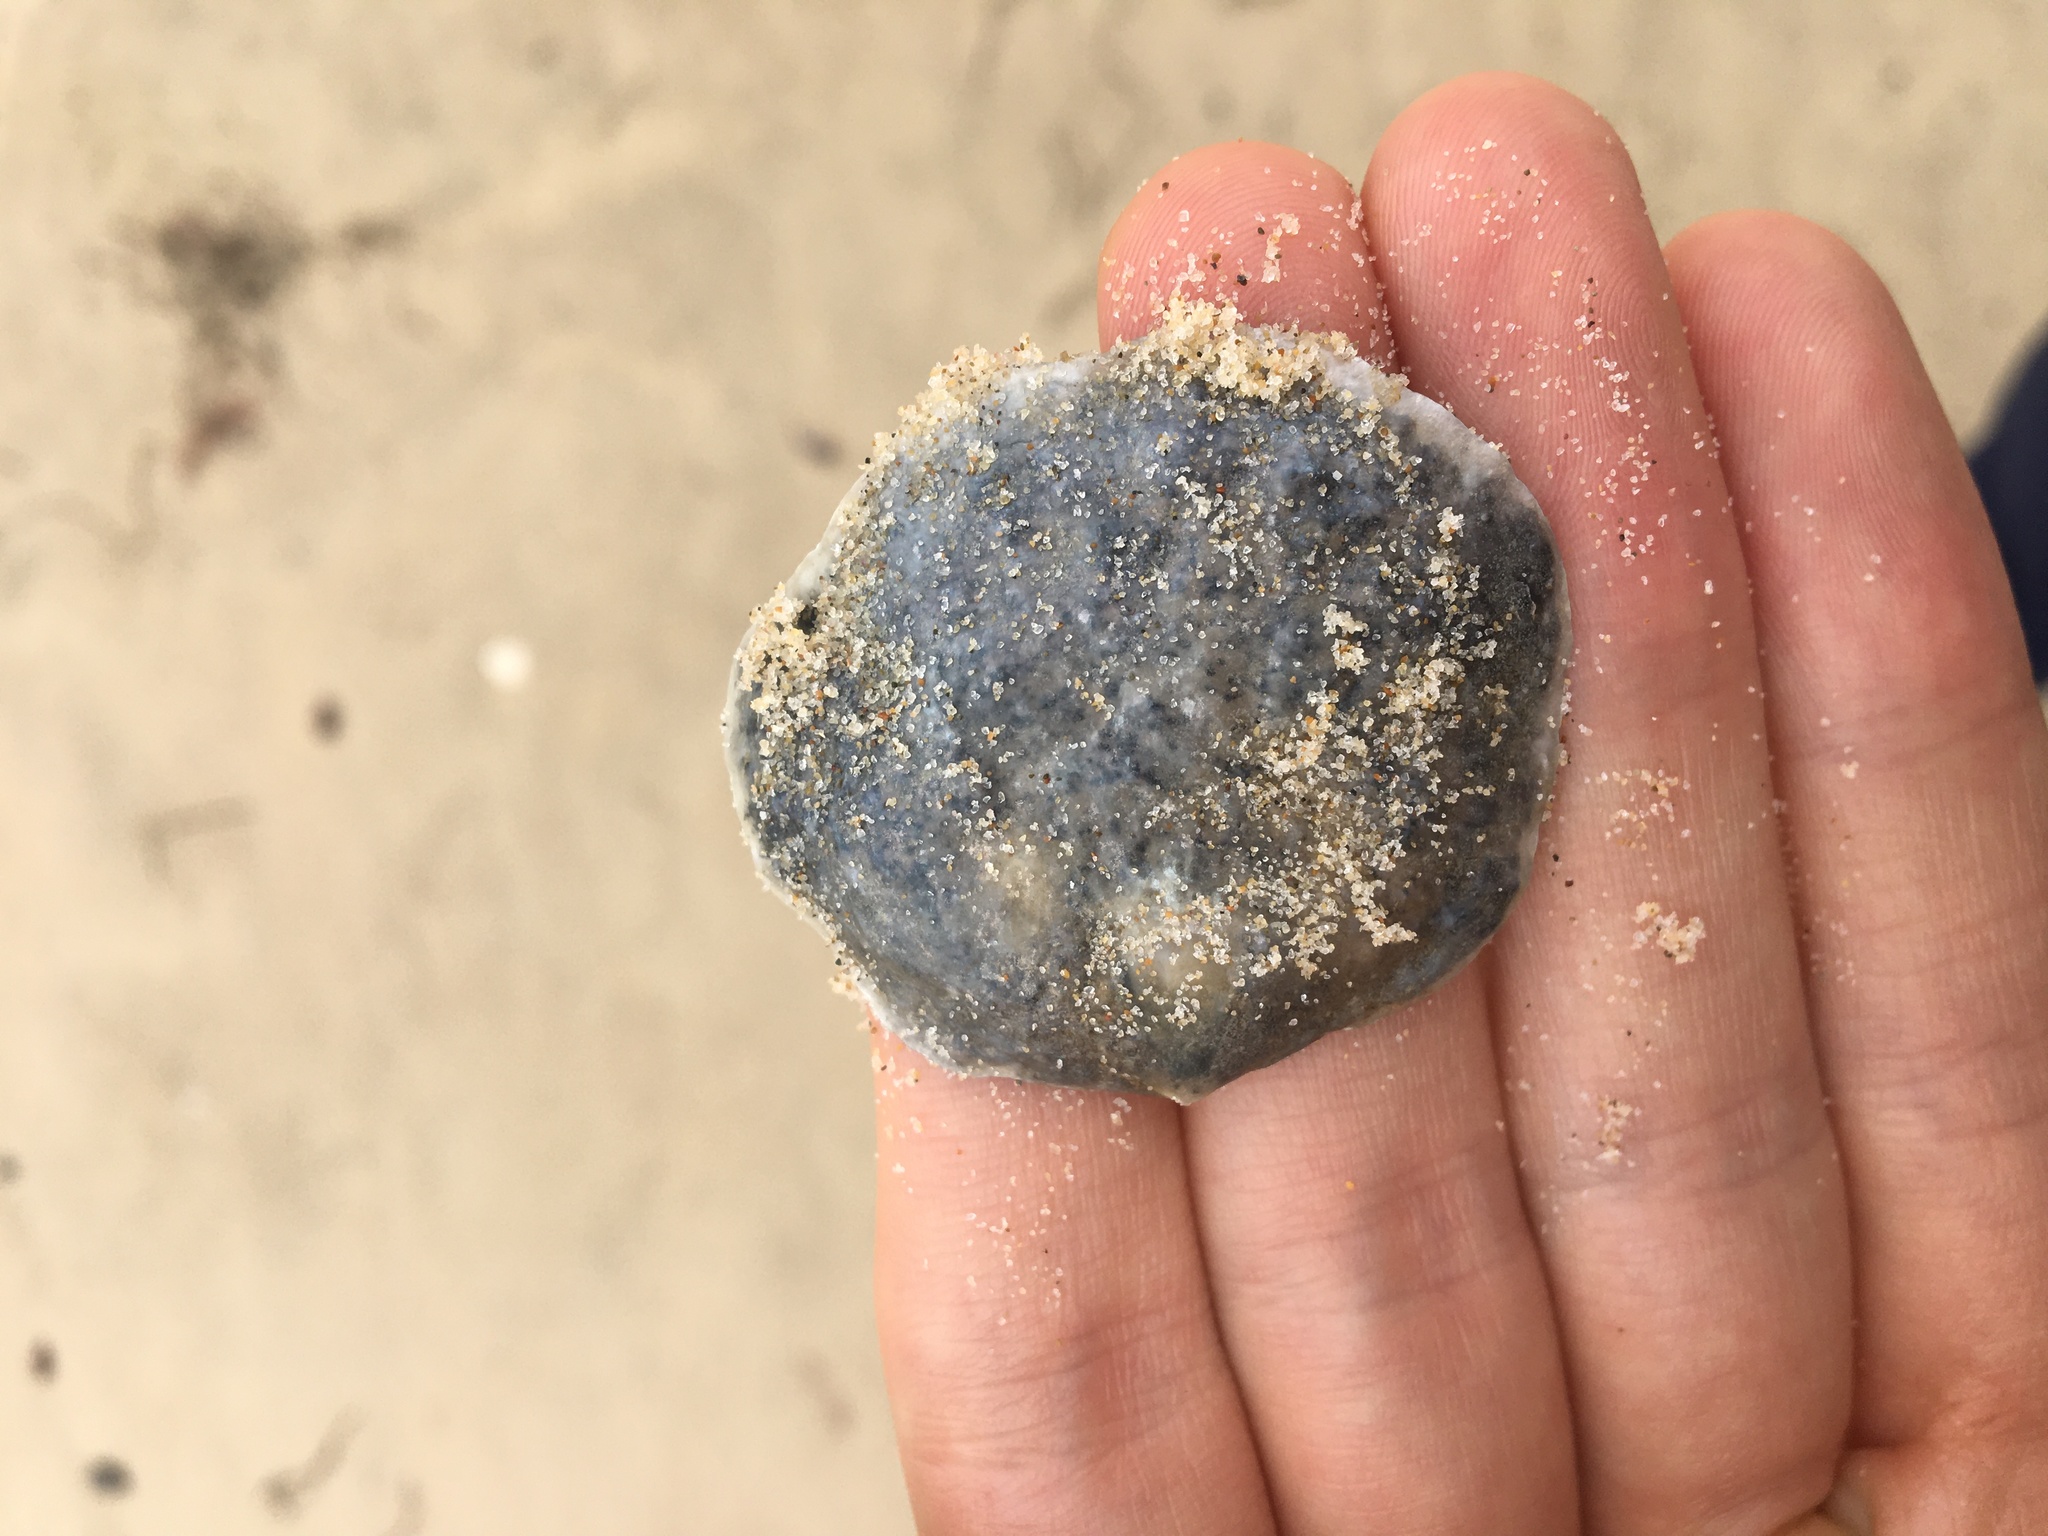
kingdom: Animalia
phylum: Mollusca
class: Bivalvia
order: Pectinida
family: Anomiidae
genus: Anomia
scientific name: Anomia trigonopsis
